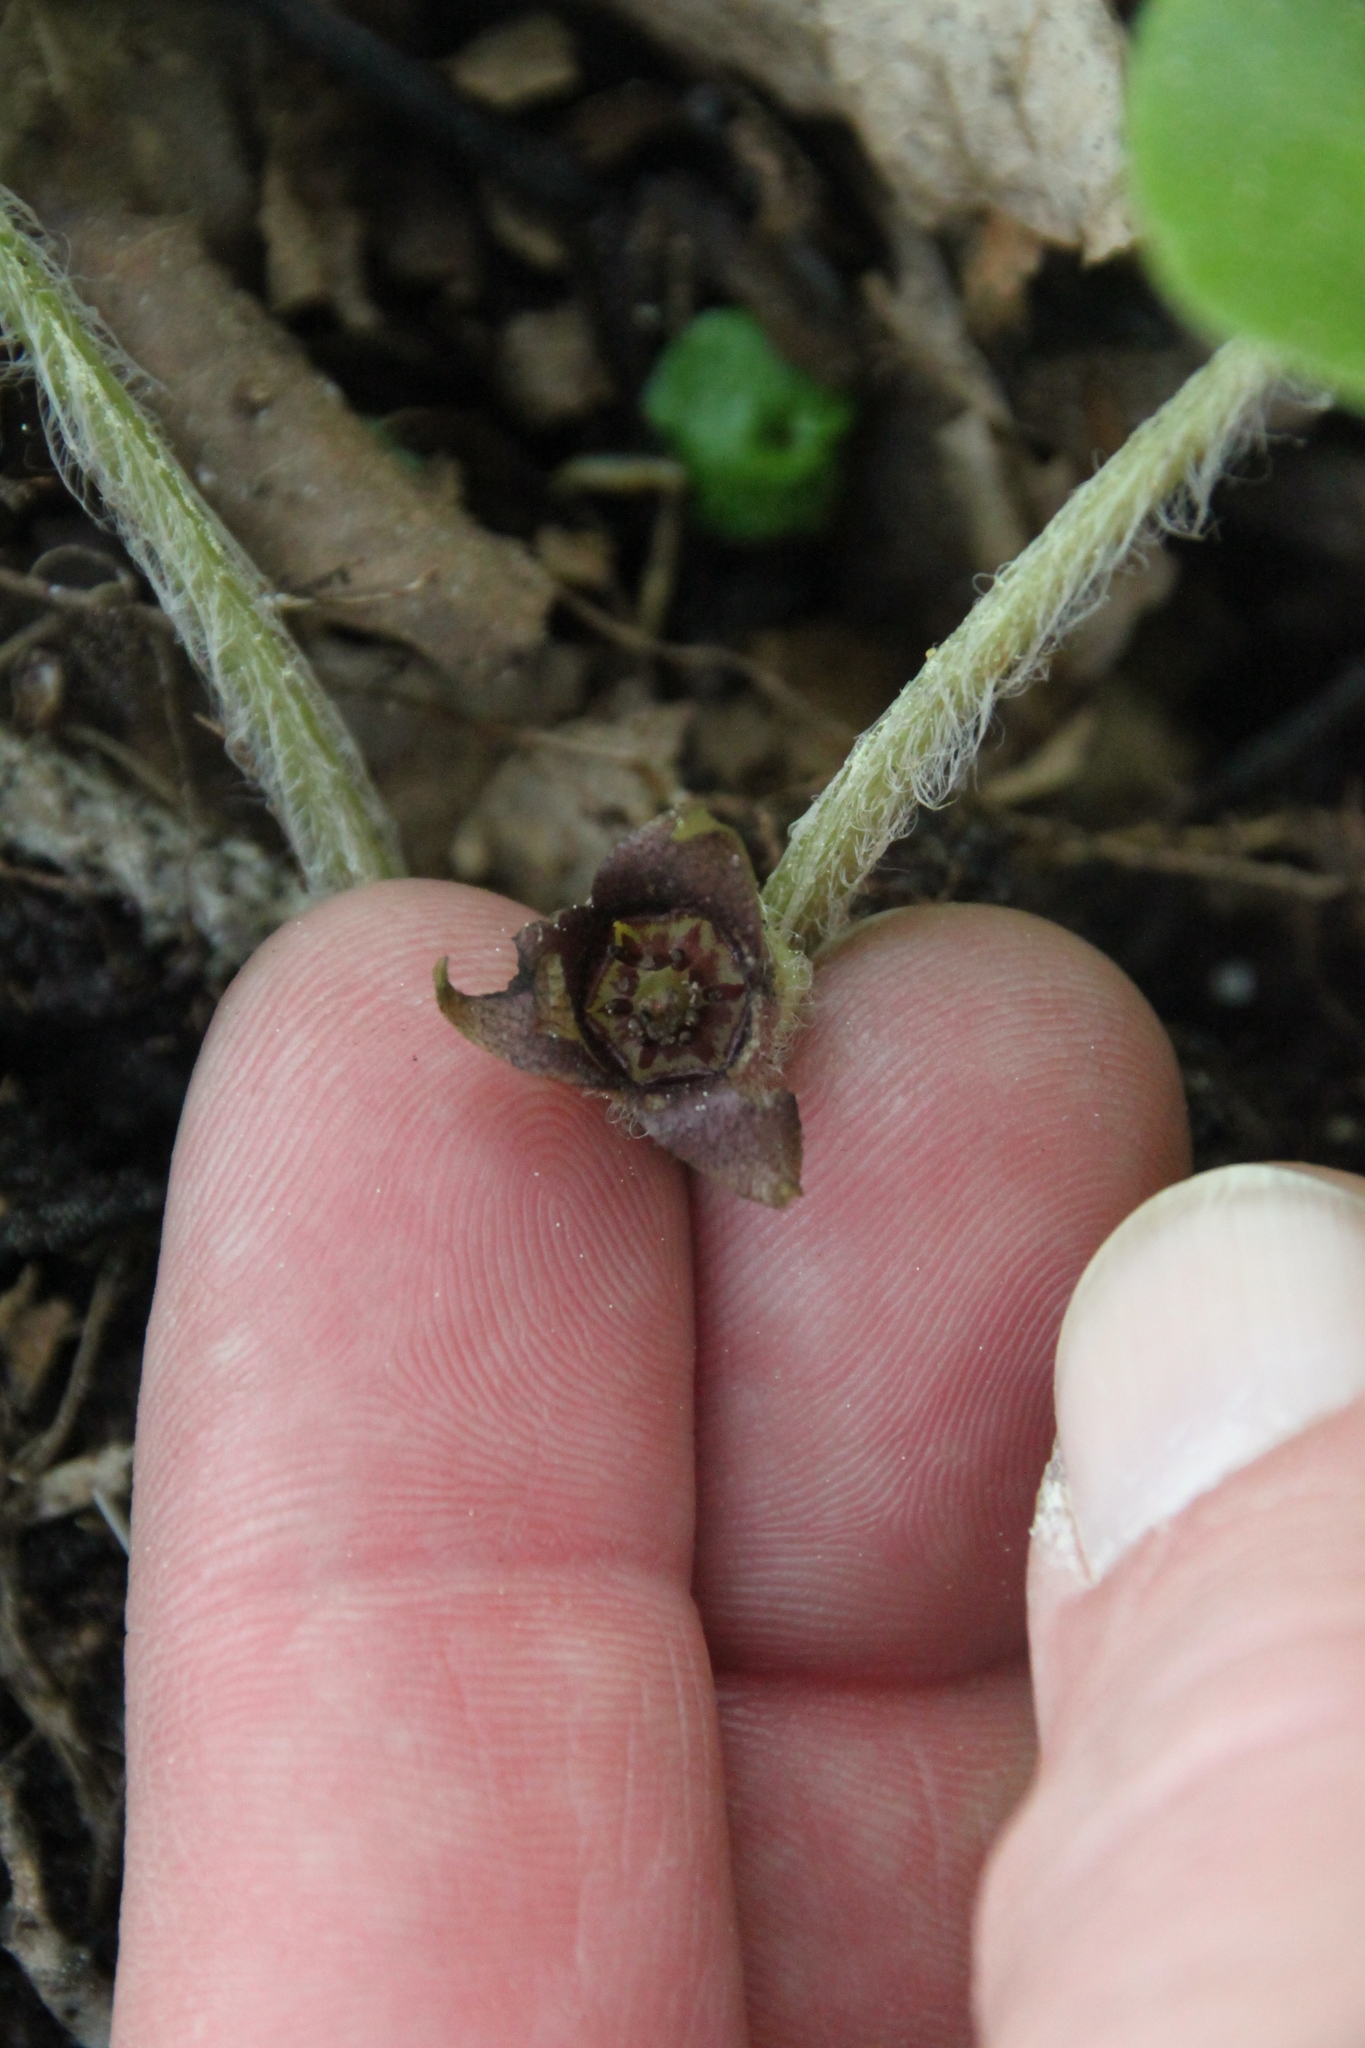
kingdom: Plantae
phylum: Tracheophyta
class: Magnoliopsida
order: Piperales
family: Aristolochiaceae
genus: Asarum
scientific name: Asarum europaeum
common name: Asarabacca
